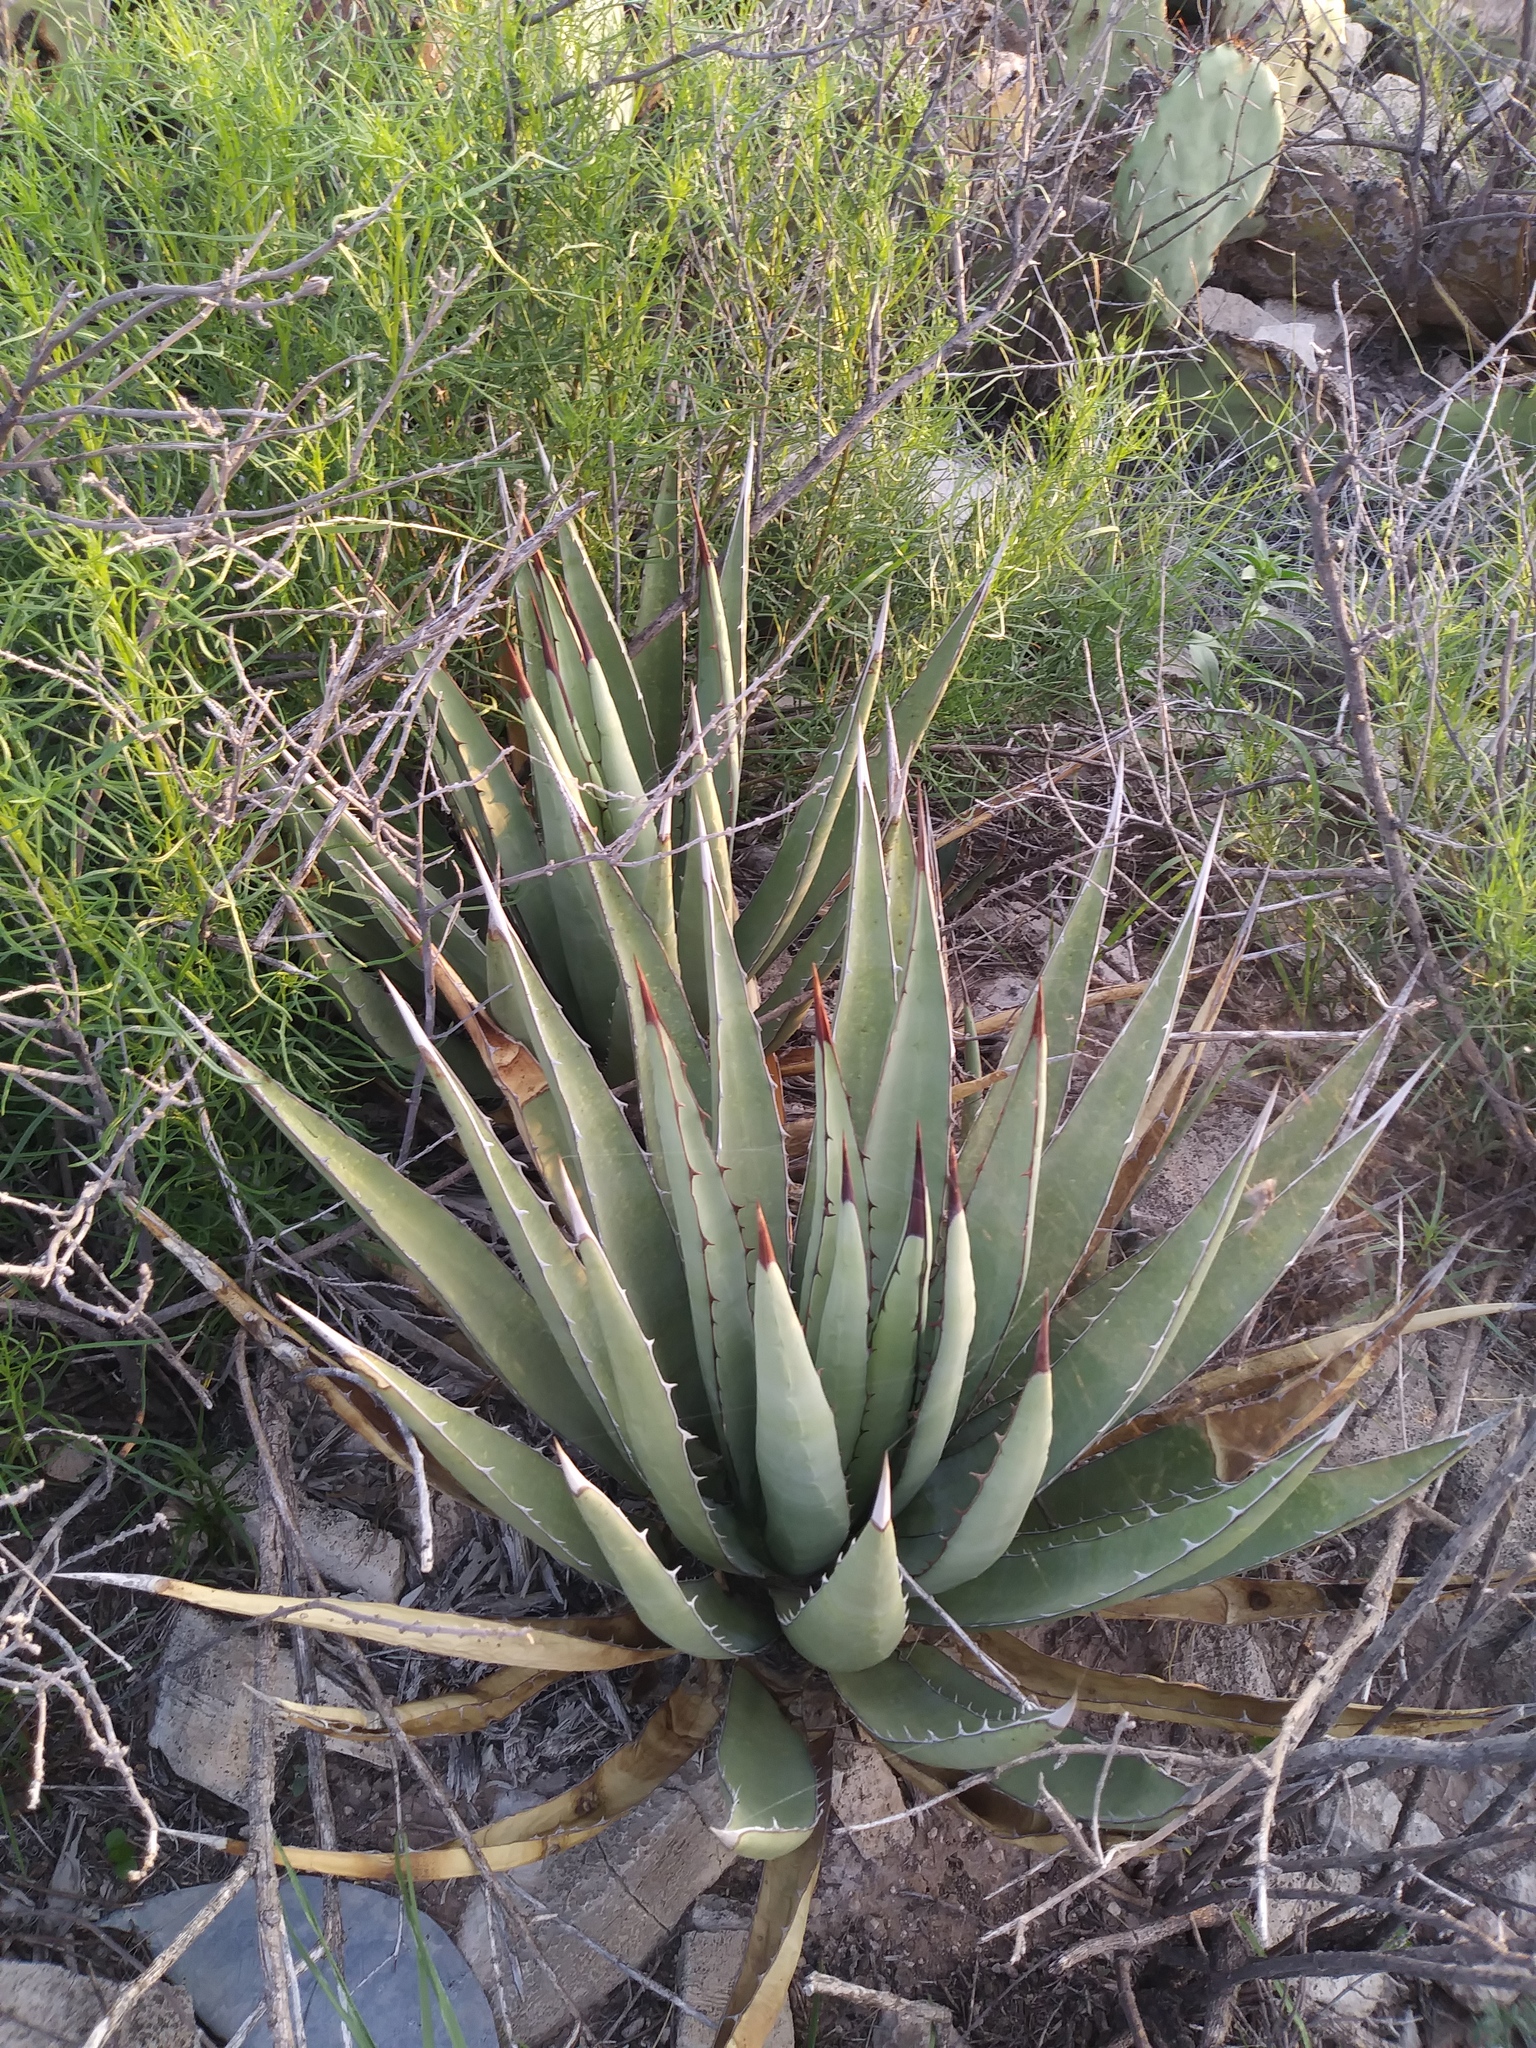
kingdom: Plantae
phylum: Tracheophyta
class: Liliopsida
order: Asparagales
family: Asparagaceae
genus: Agave
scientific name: Agave lechuguilla
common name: Lecheguilla agave
